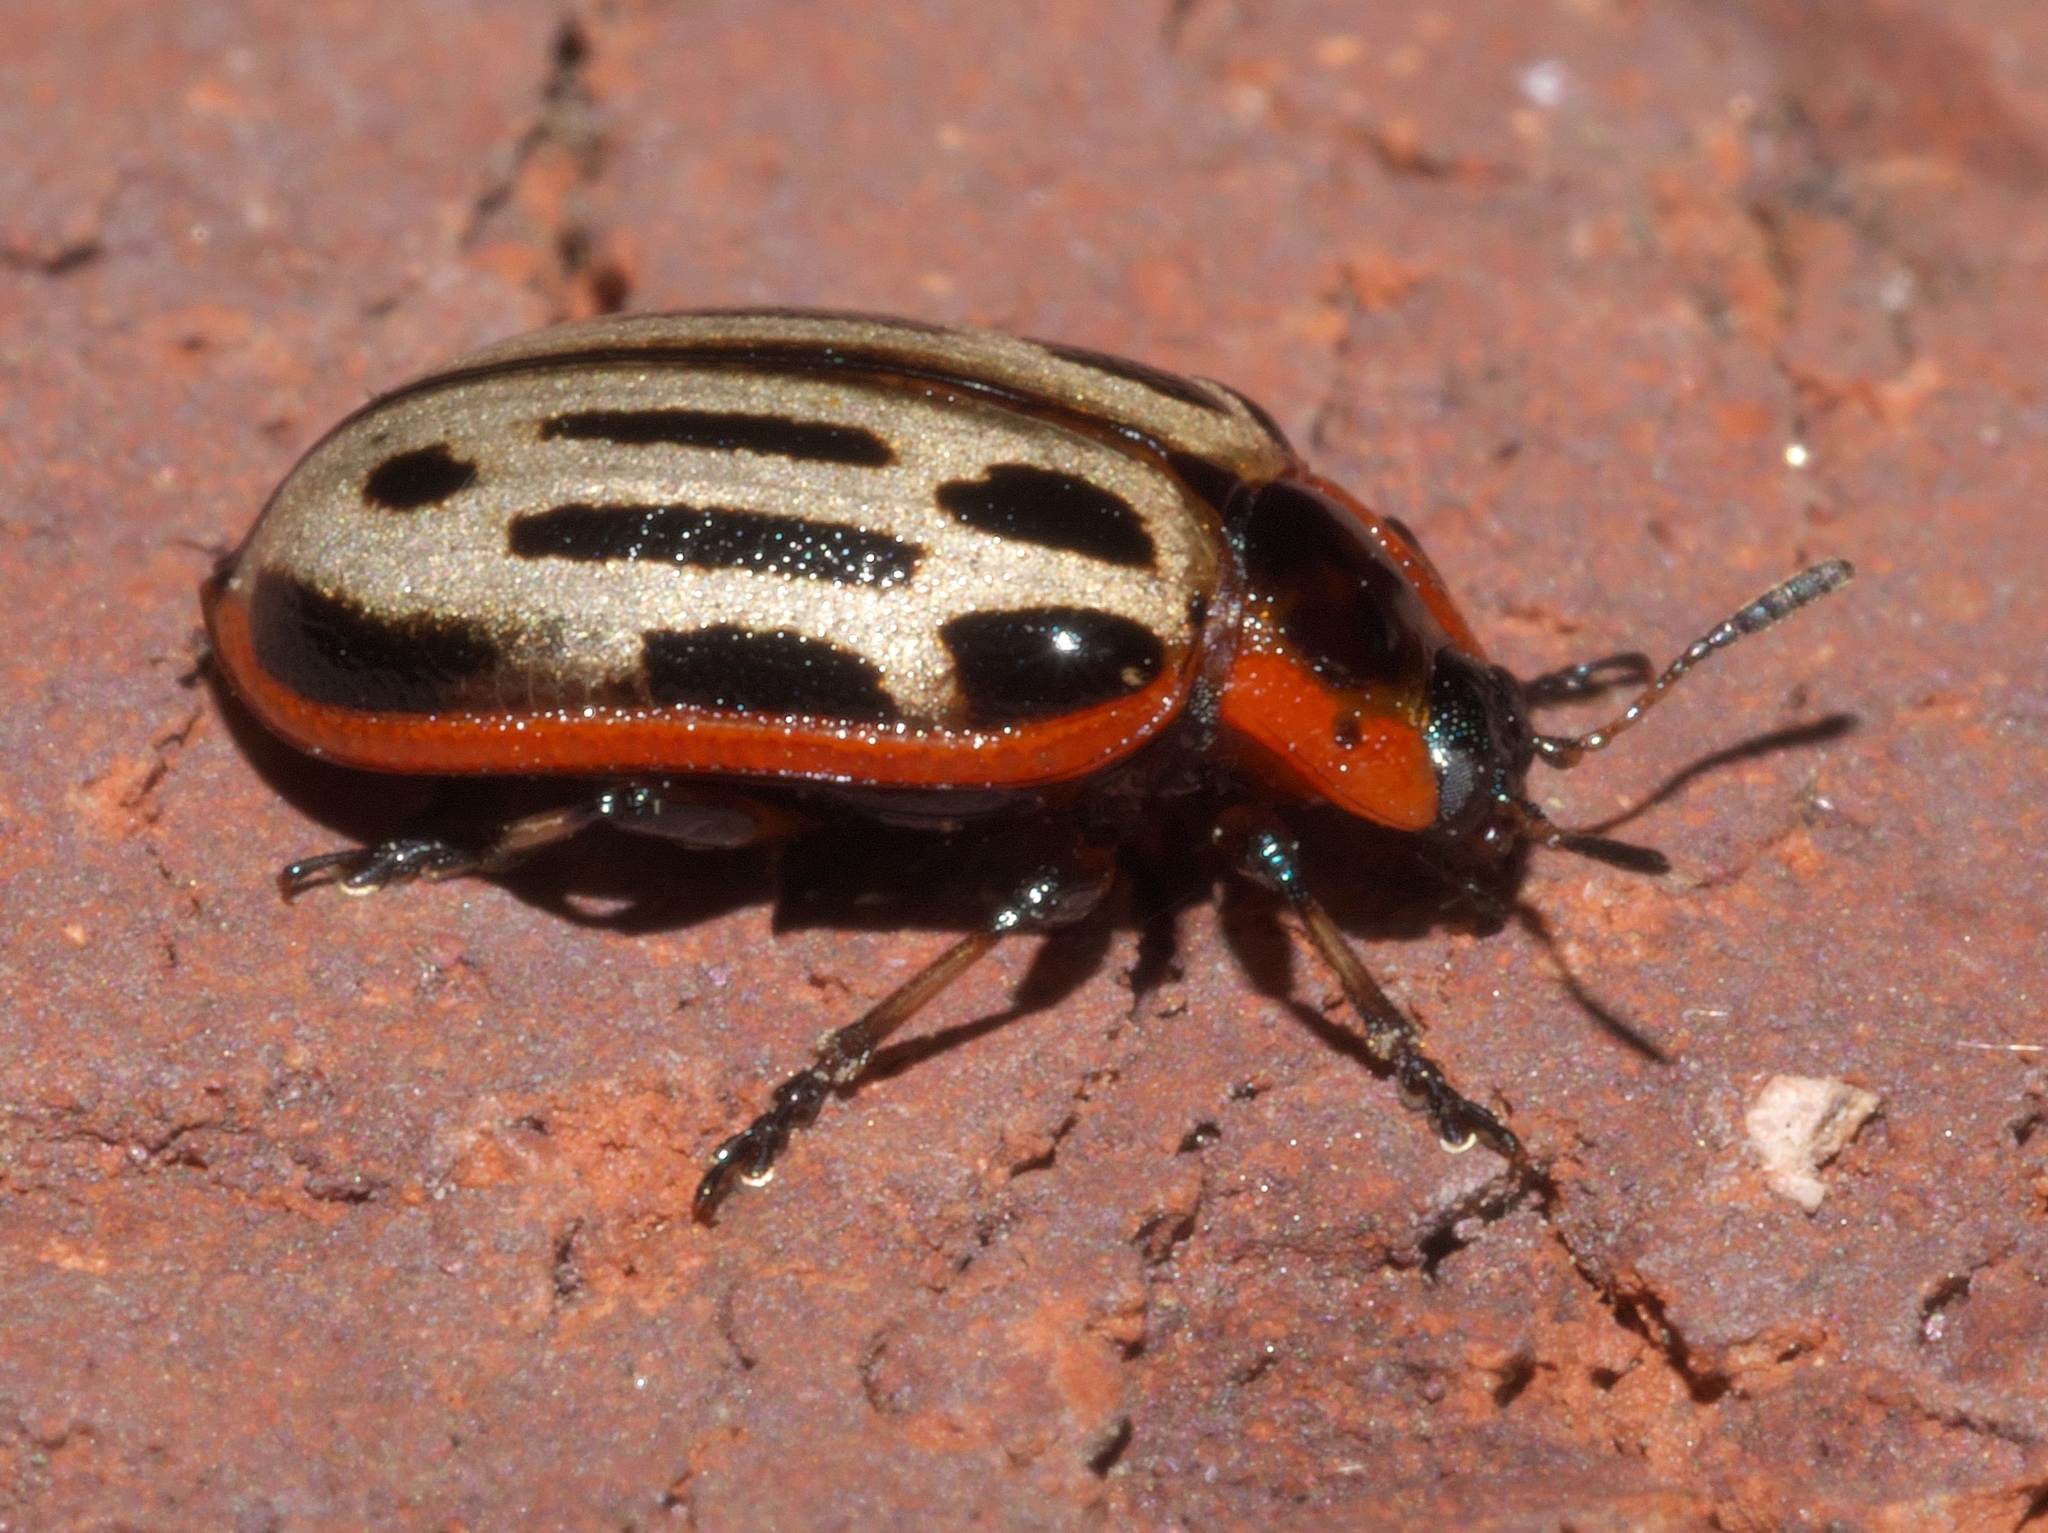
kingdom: Animalia
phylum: Arthropoda
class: Insecta
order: Coleoptera
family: Chrysomelidae
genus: Aethiopocassis
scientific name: Aethiopocassis scripta
